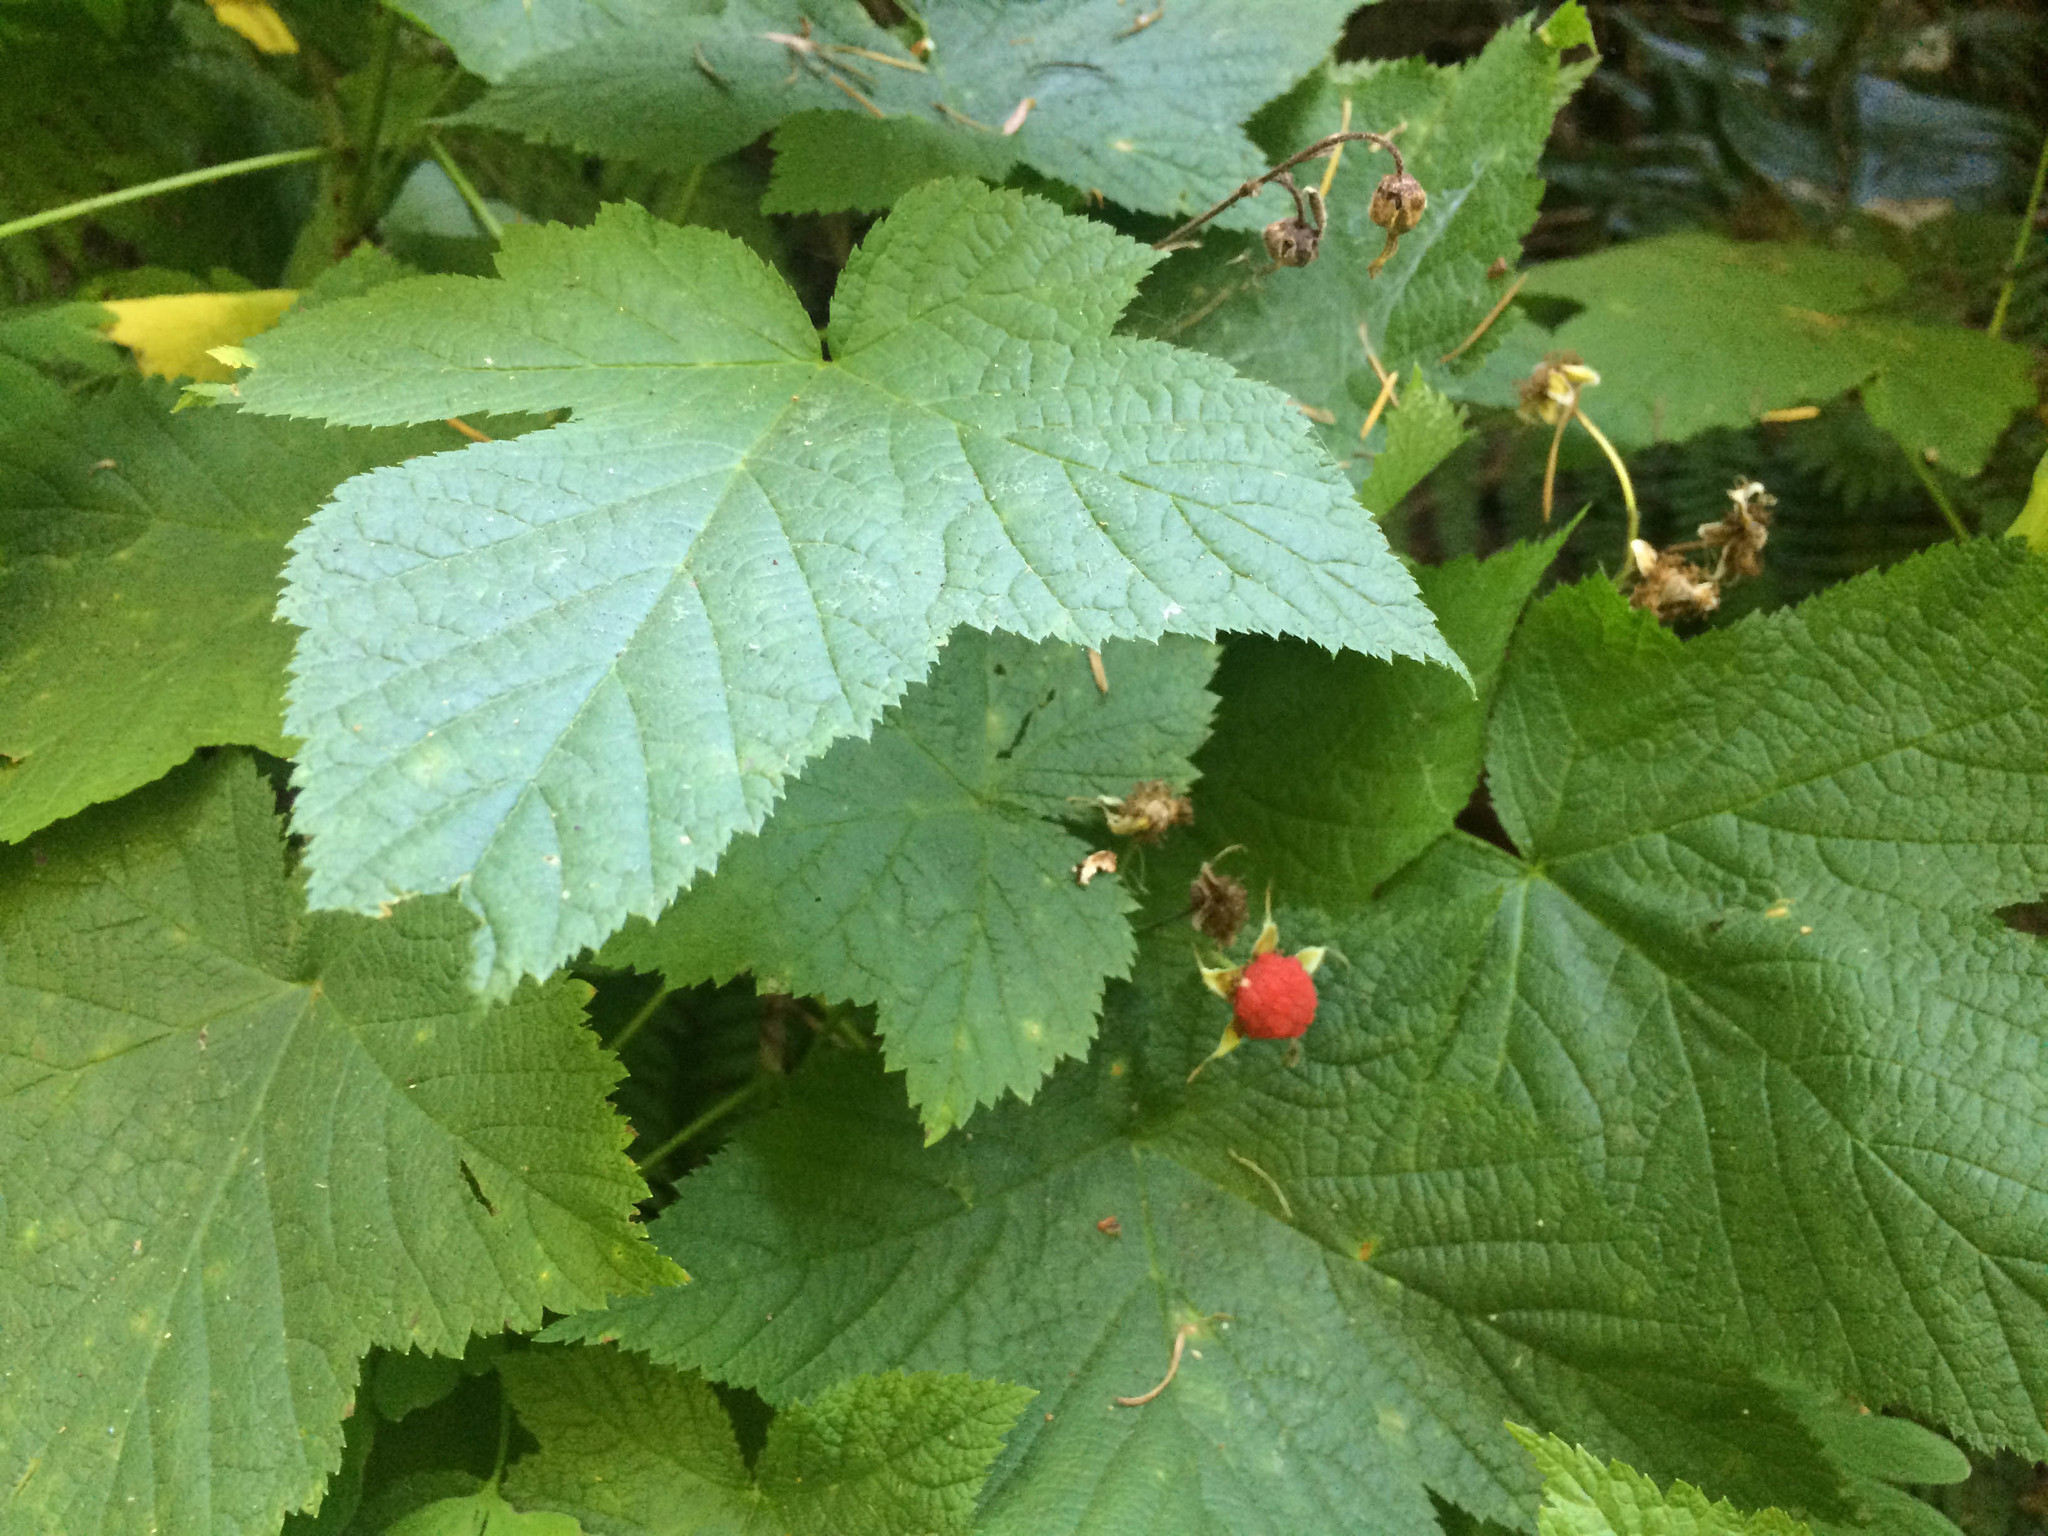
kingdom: Plantae
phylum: Tracheophyta
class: Magnoliopsida
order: Rosales
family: Rosaceae
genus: Rubus
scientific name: Rubus parviflorus
